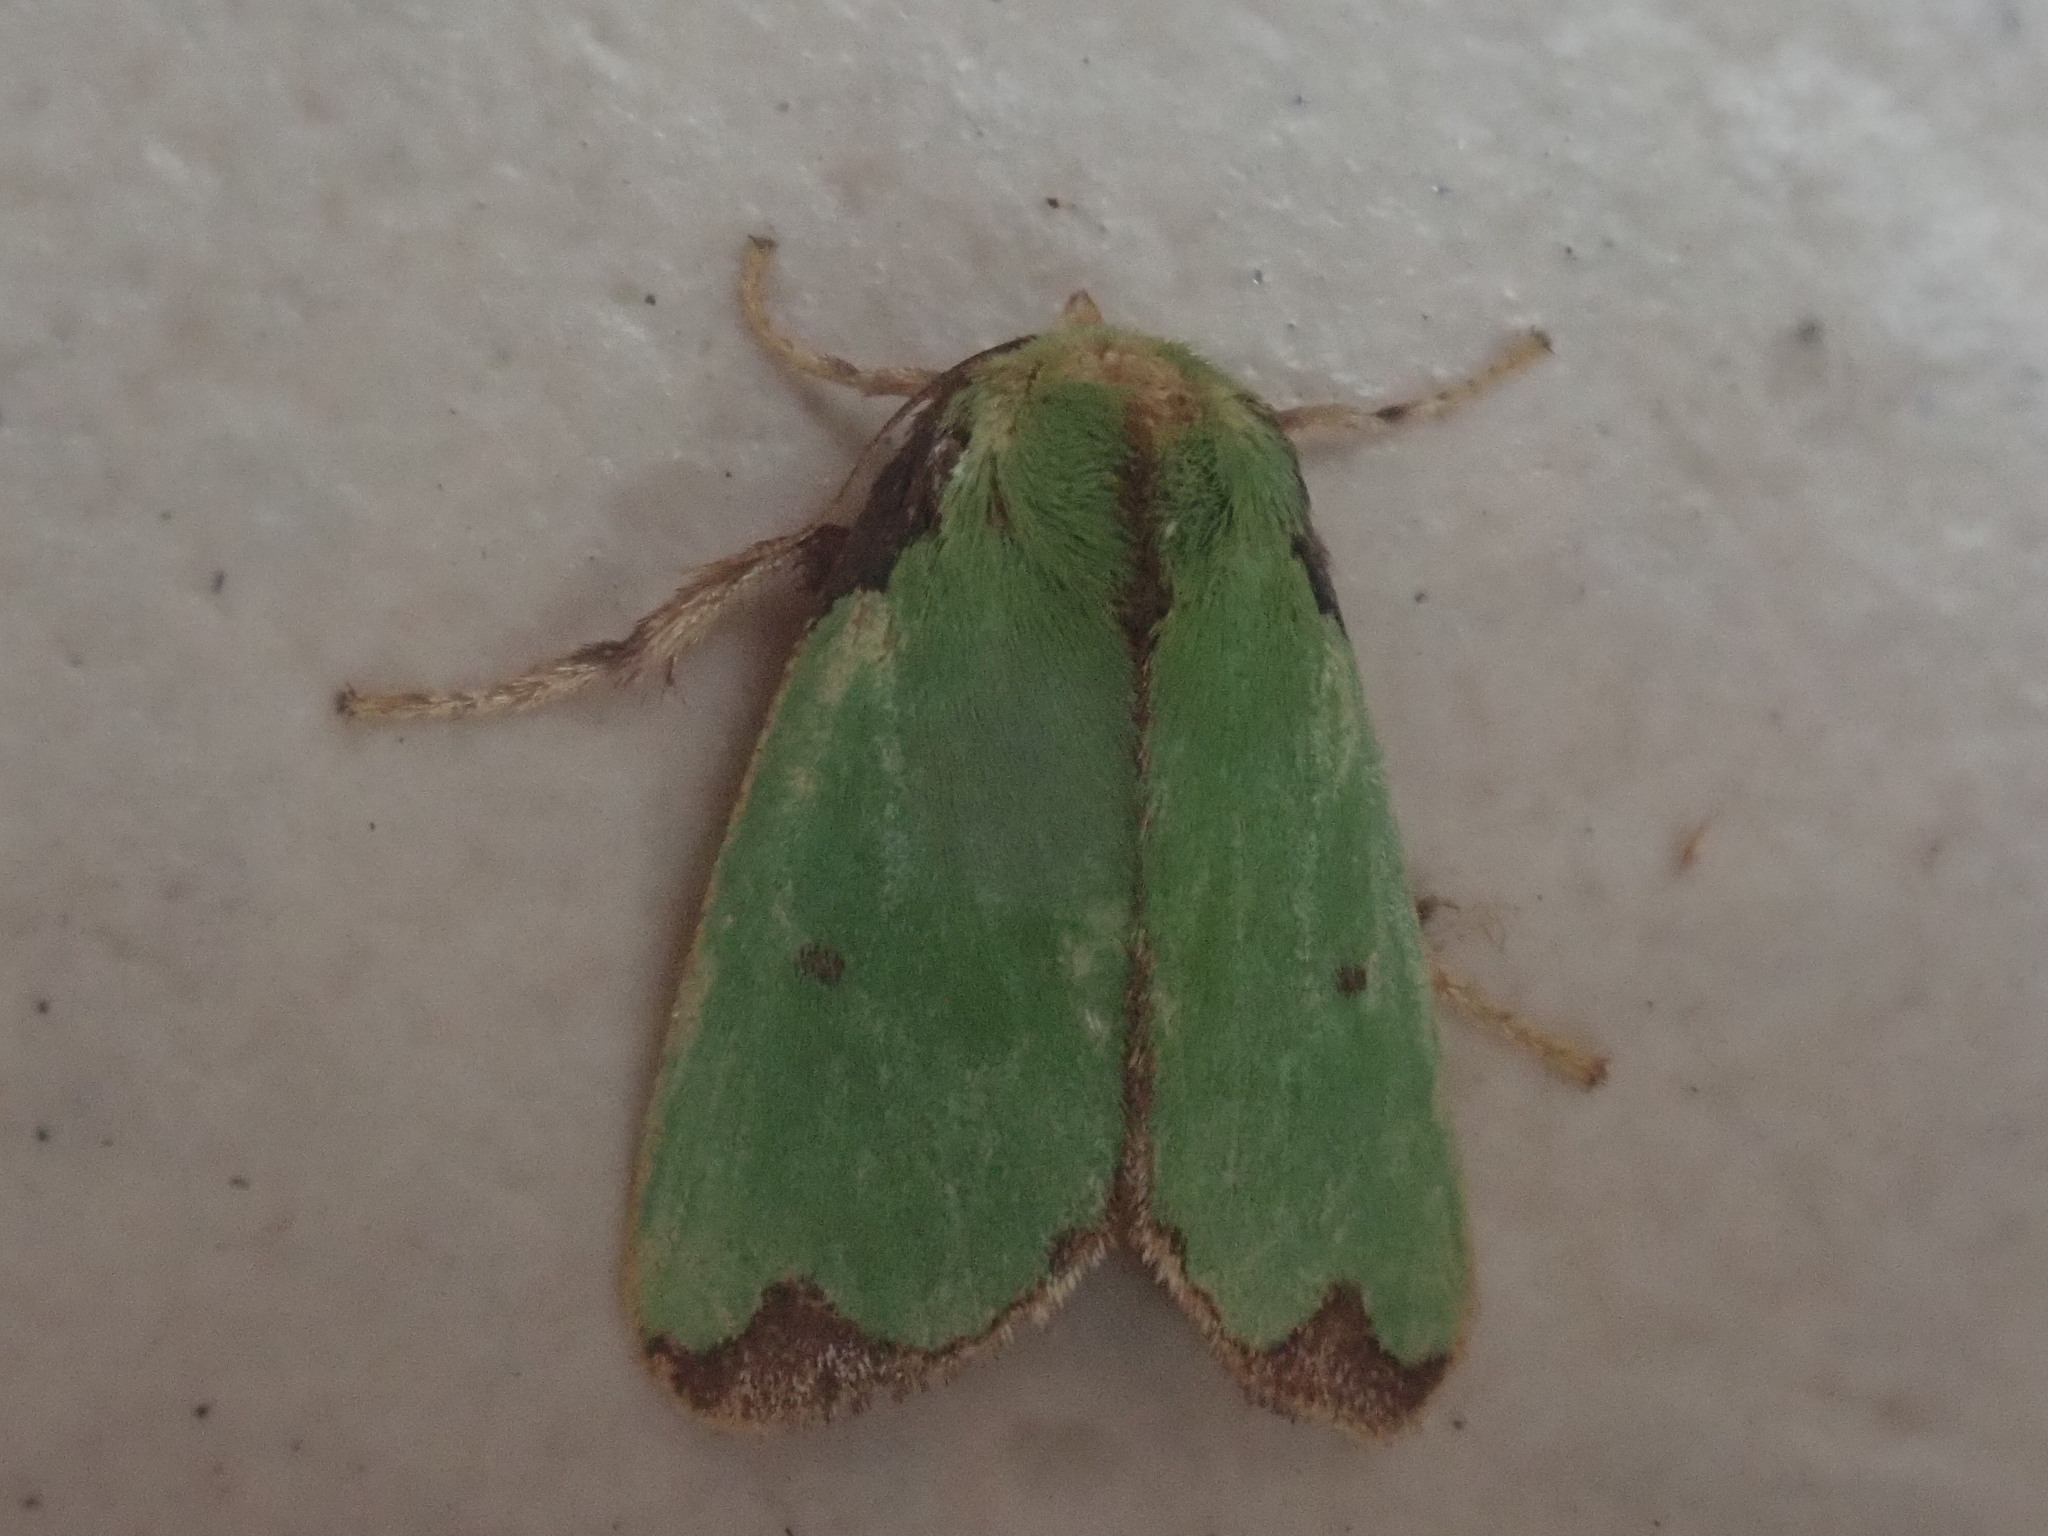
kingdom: Animalia
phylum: Arthropoda
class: Insecta
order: Lepidoptera
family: Limacodidae
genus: Parasa
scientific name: Parasa wellesca
